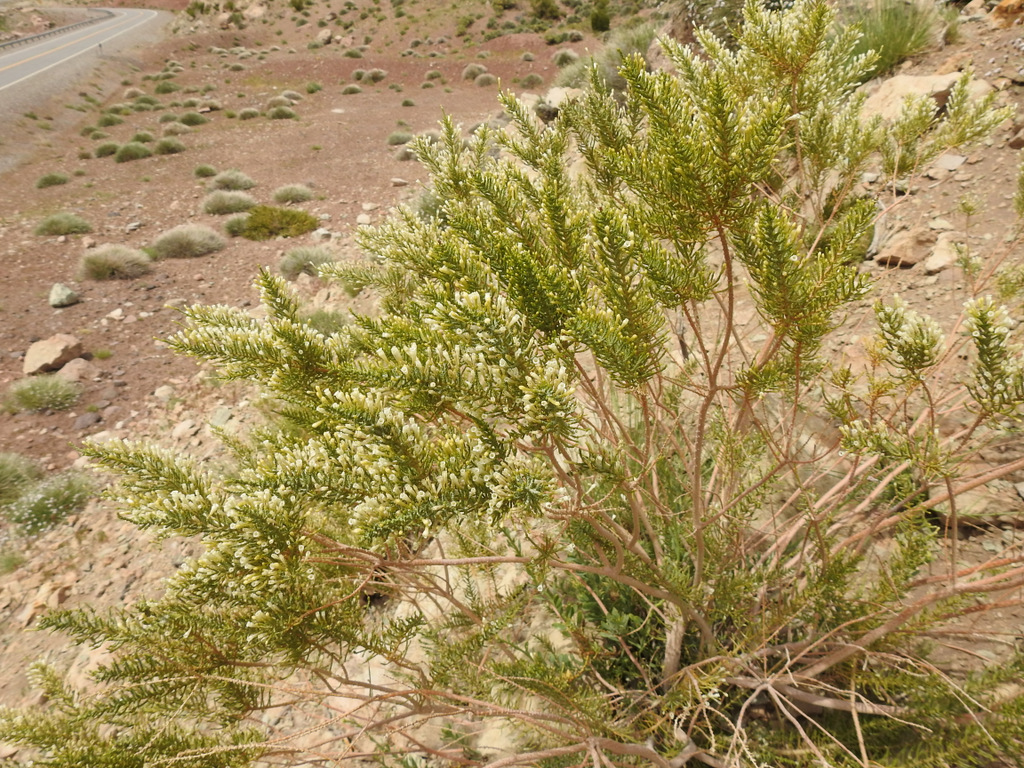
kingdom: Plantae
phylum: Tracheophyta
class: Magnoliopsida
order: Solanales
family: Solanaceae
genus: Fabiana
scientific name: Fabiana imbricata
